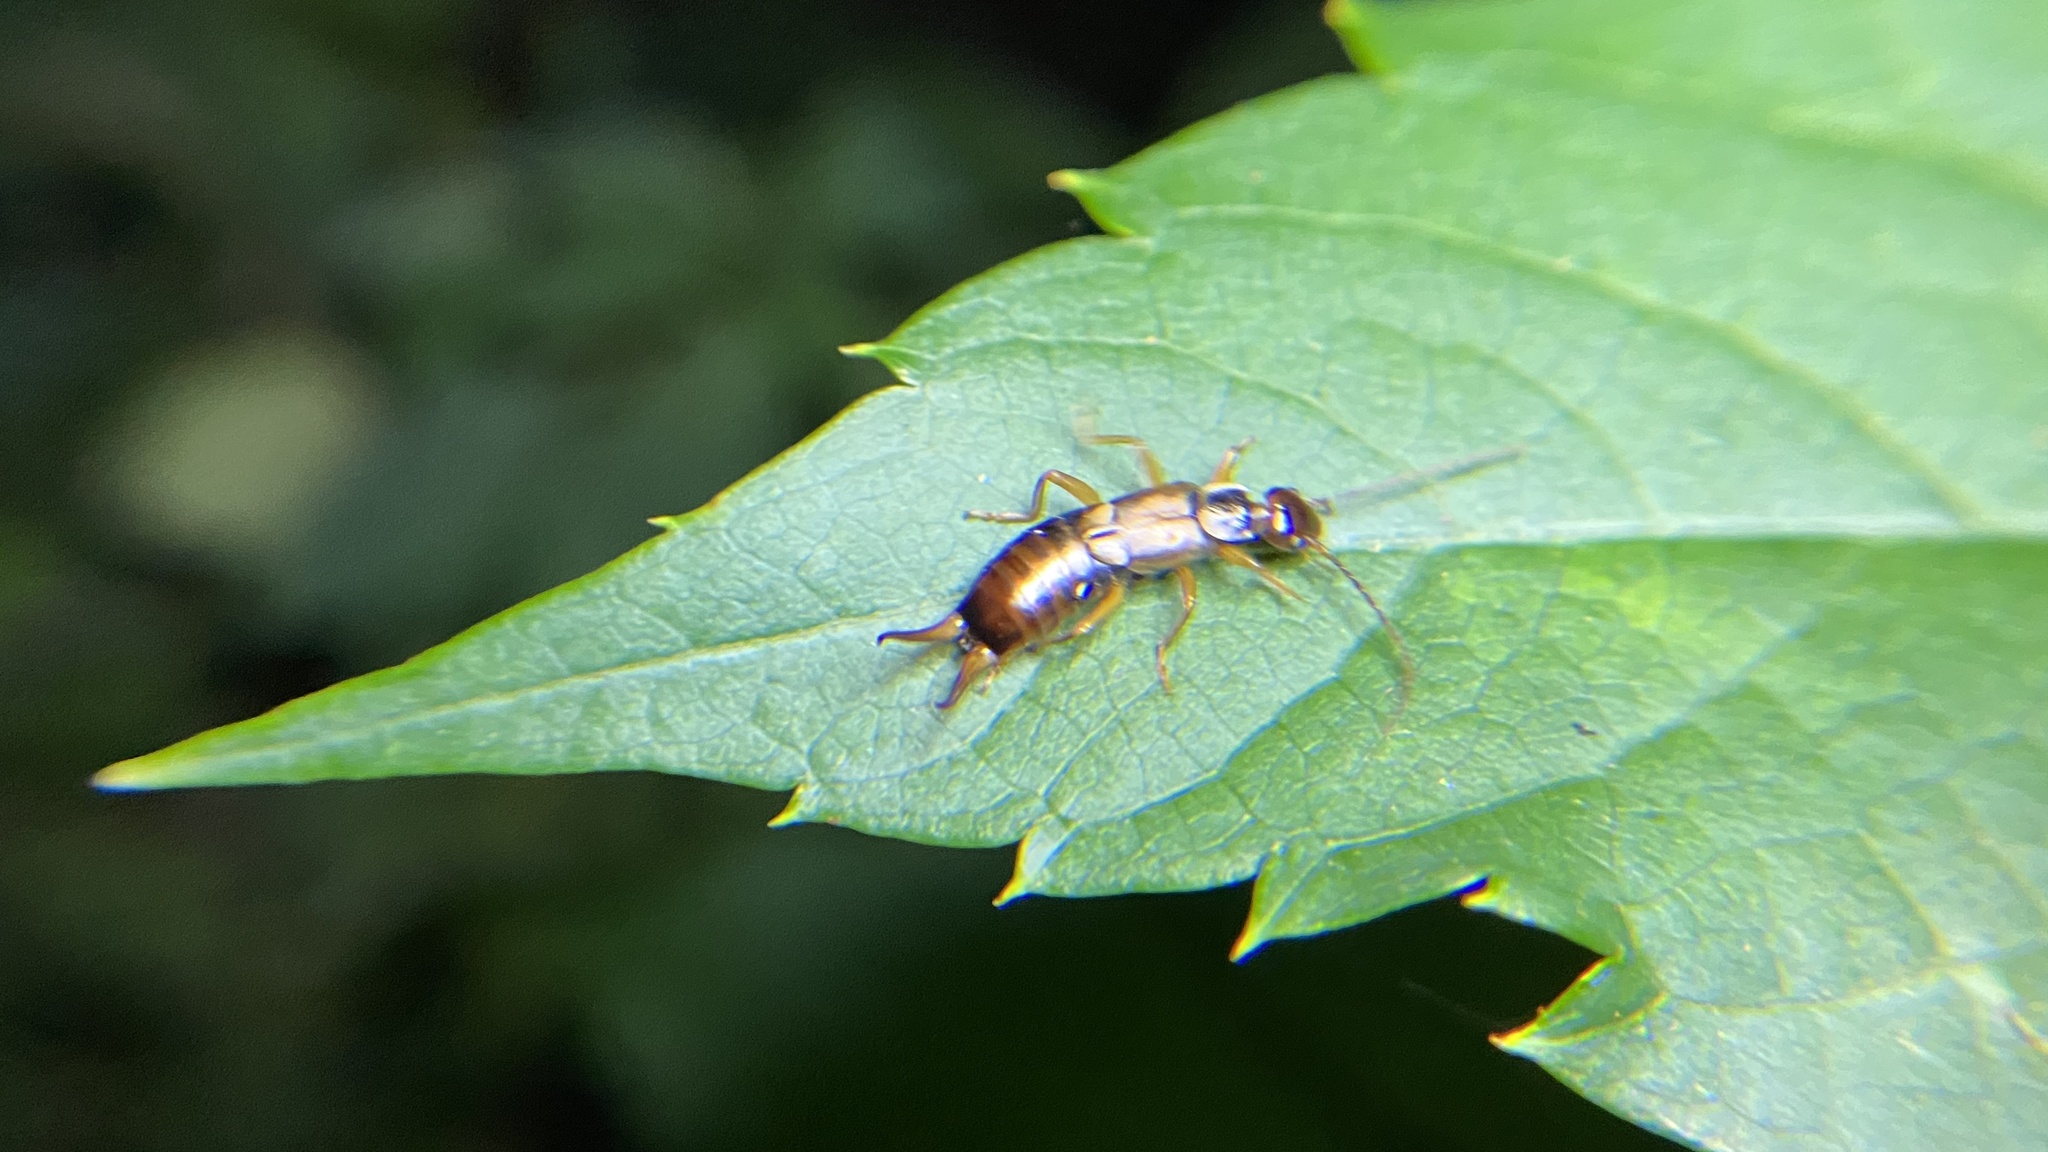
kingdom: Animalia
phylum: Arthropoda
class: Insecta
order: Dermaptera
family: Forficulidae
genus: Forficula
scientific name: Forficula
